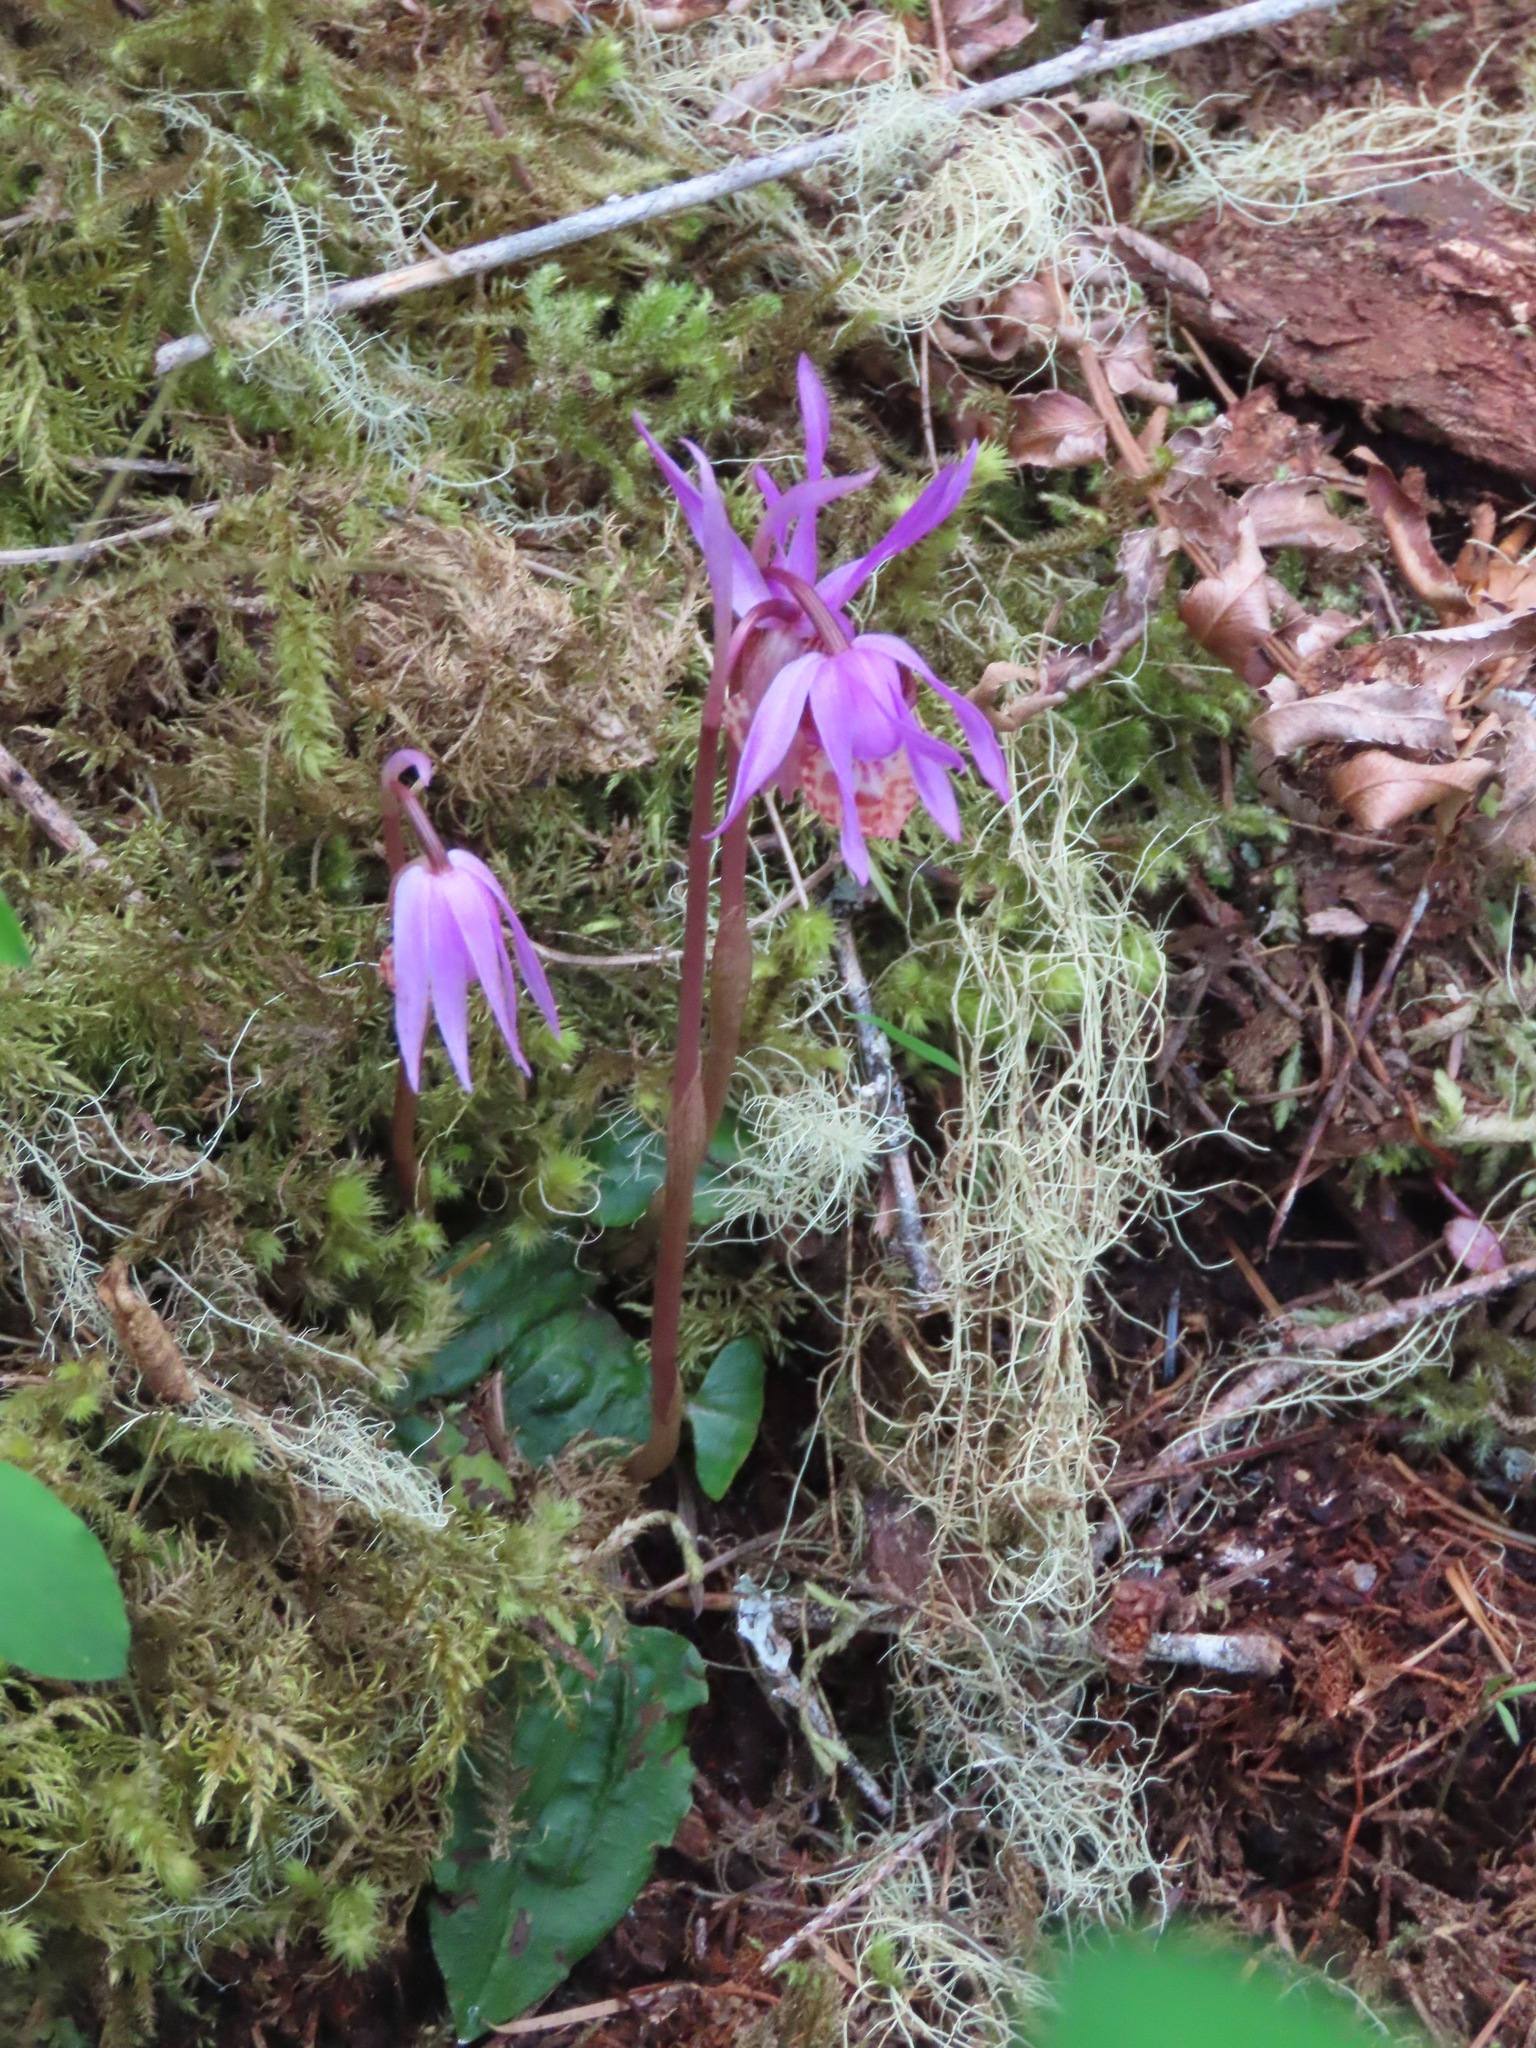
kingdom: Plantae
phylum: Tracheophyta
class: Liliopsida
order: Asparagales
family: Orchidaceae
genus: Calypso
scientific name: Calypso bulbosa
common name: Calypso
